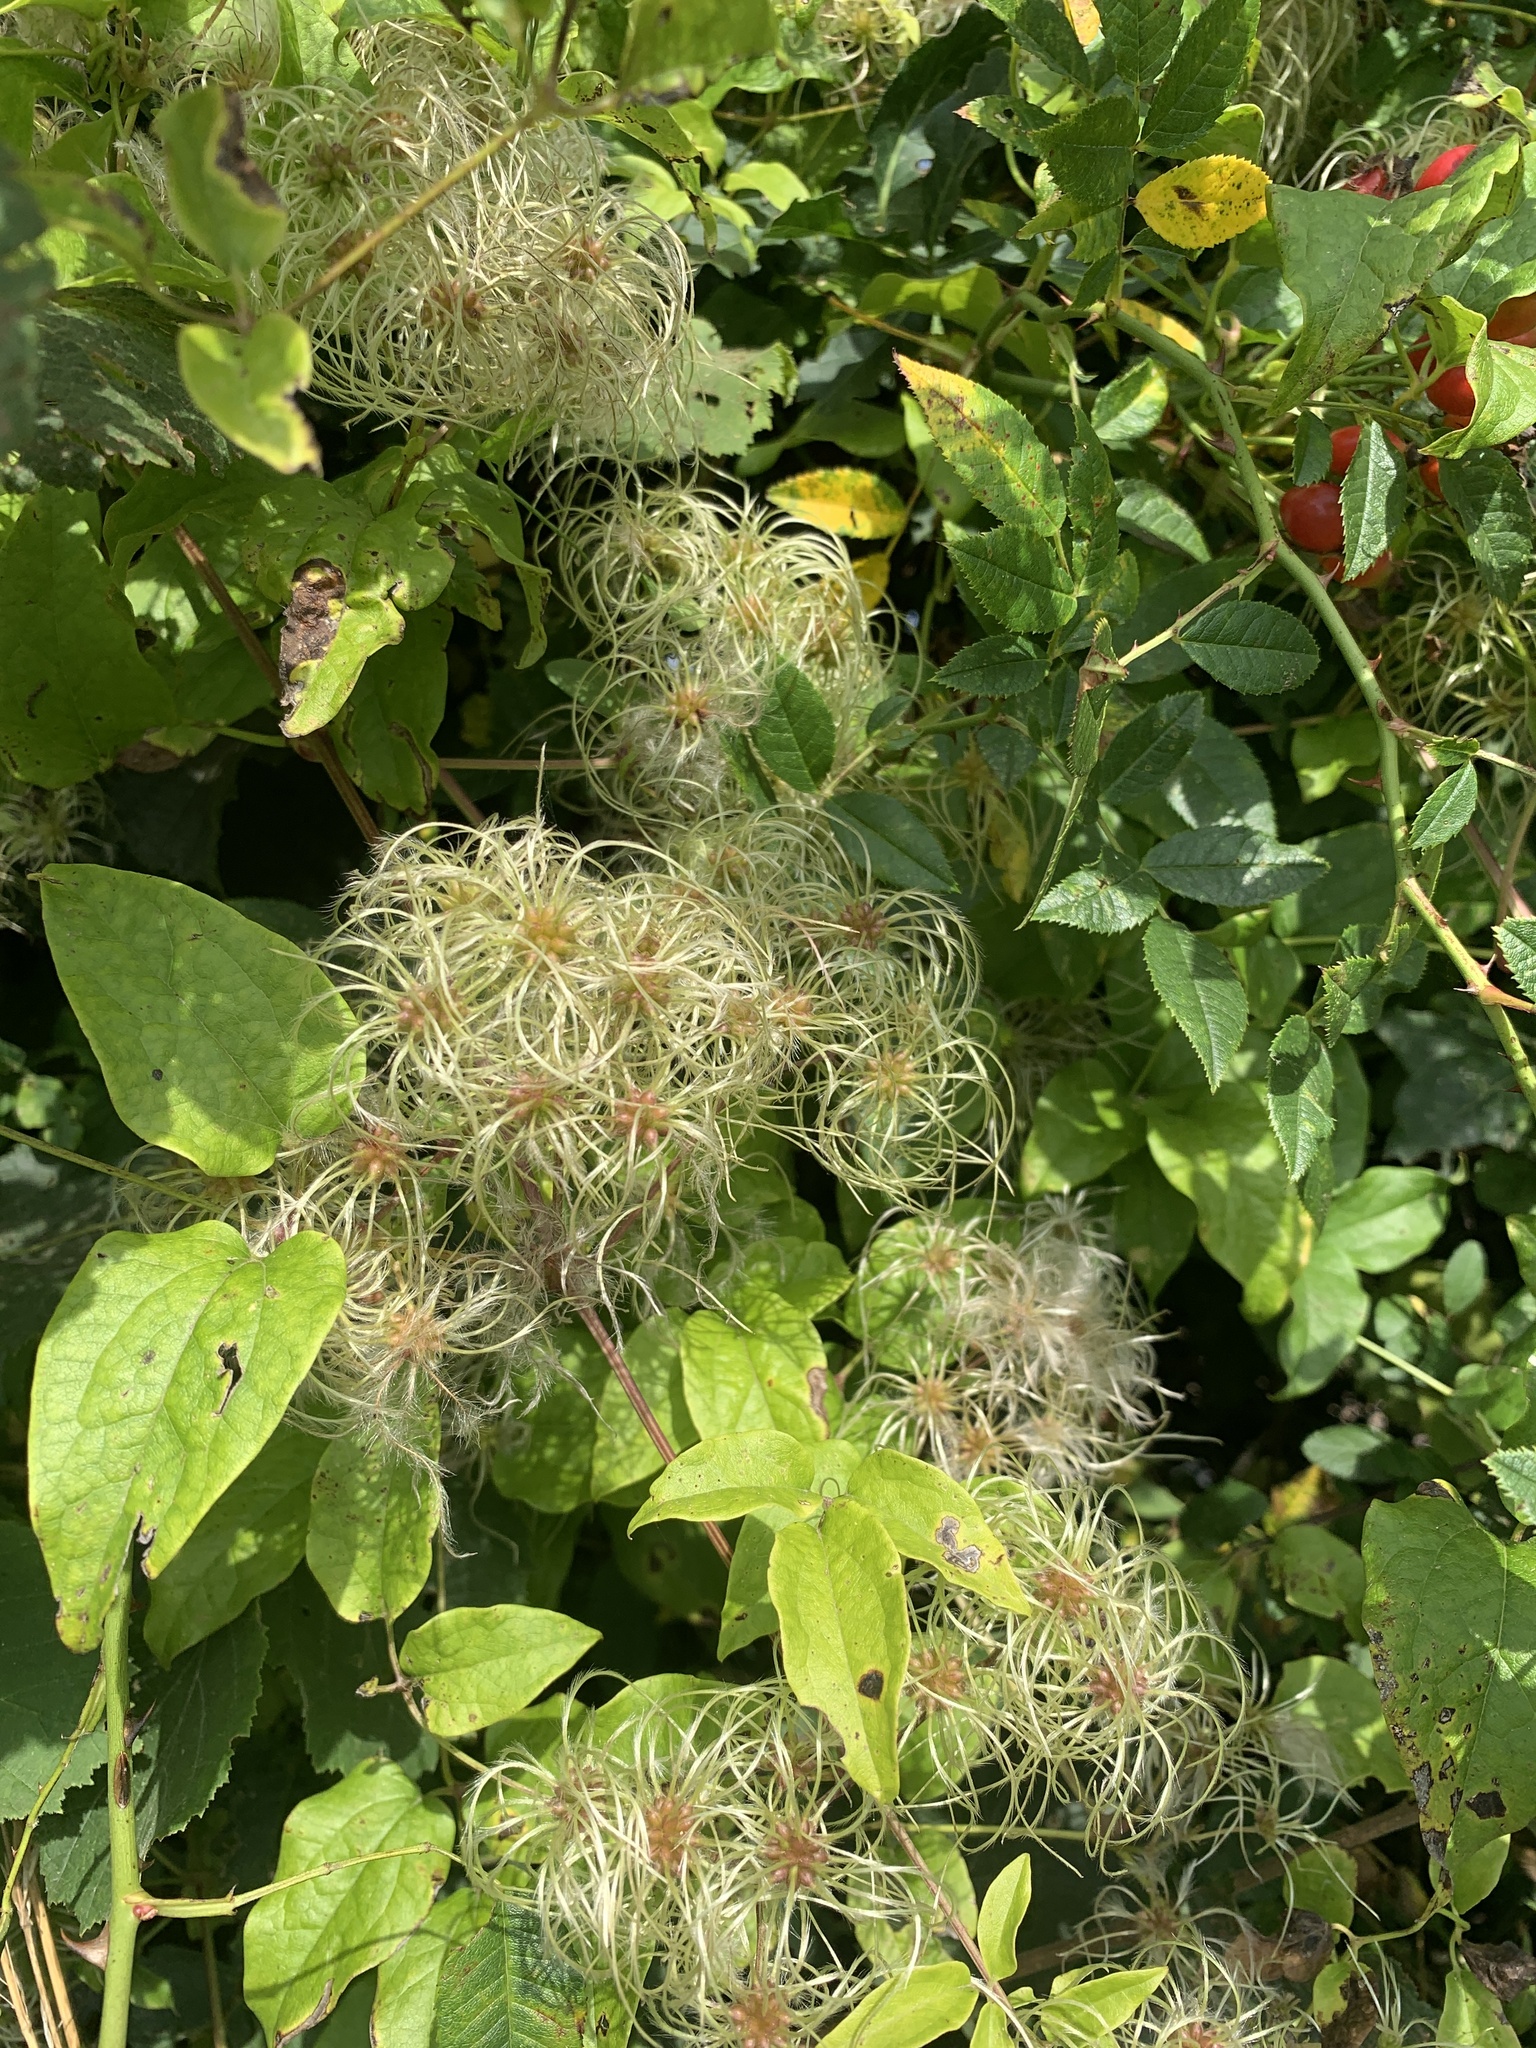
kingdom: Plantae
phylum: Tracheophyta
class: Magnoliopsida
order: Ranunculales
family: Ranunculaceae
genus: Clematis
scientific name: Clematis vitalba
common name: Evergreen clematis
